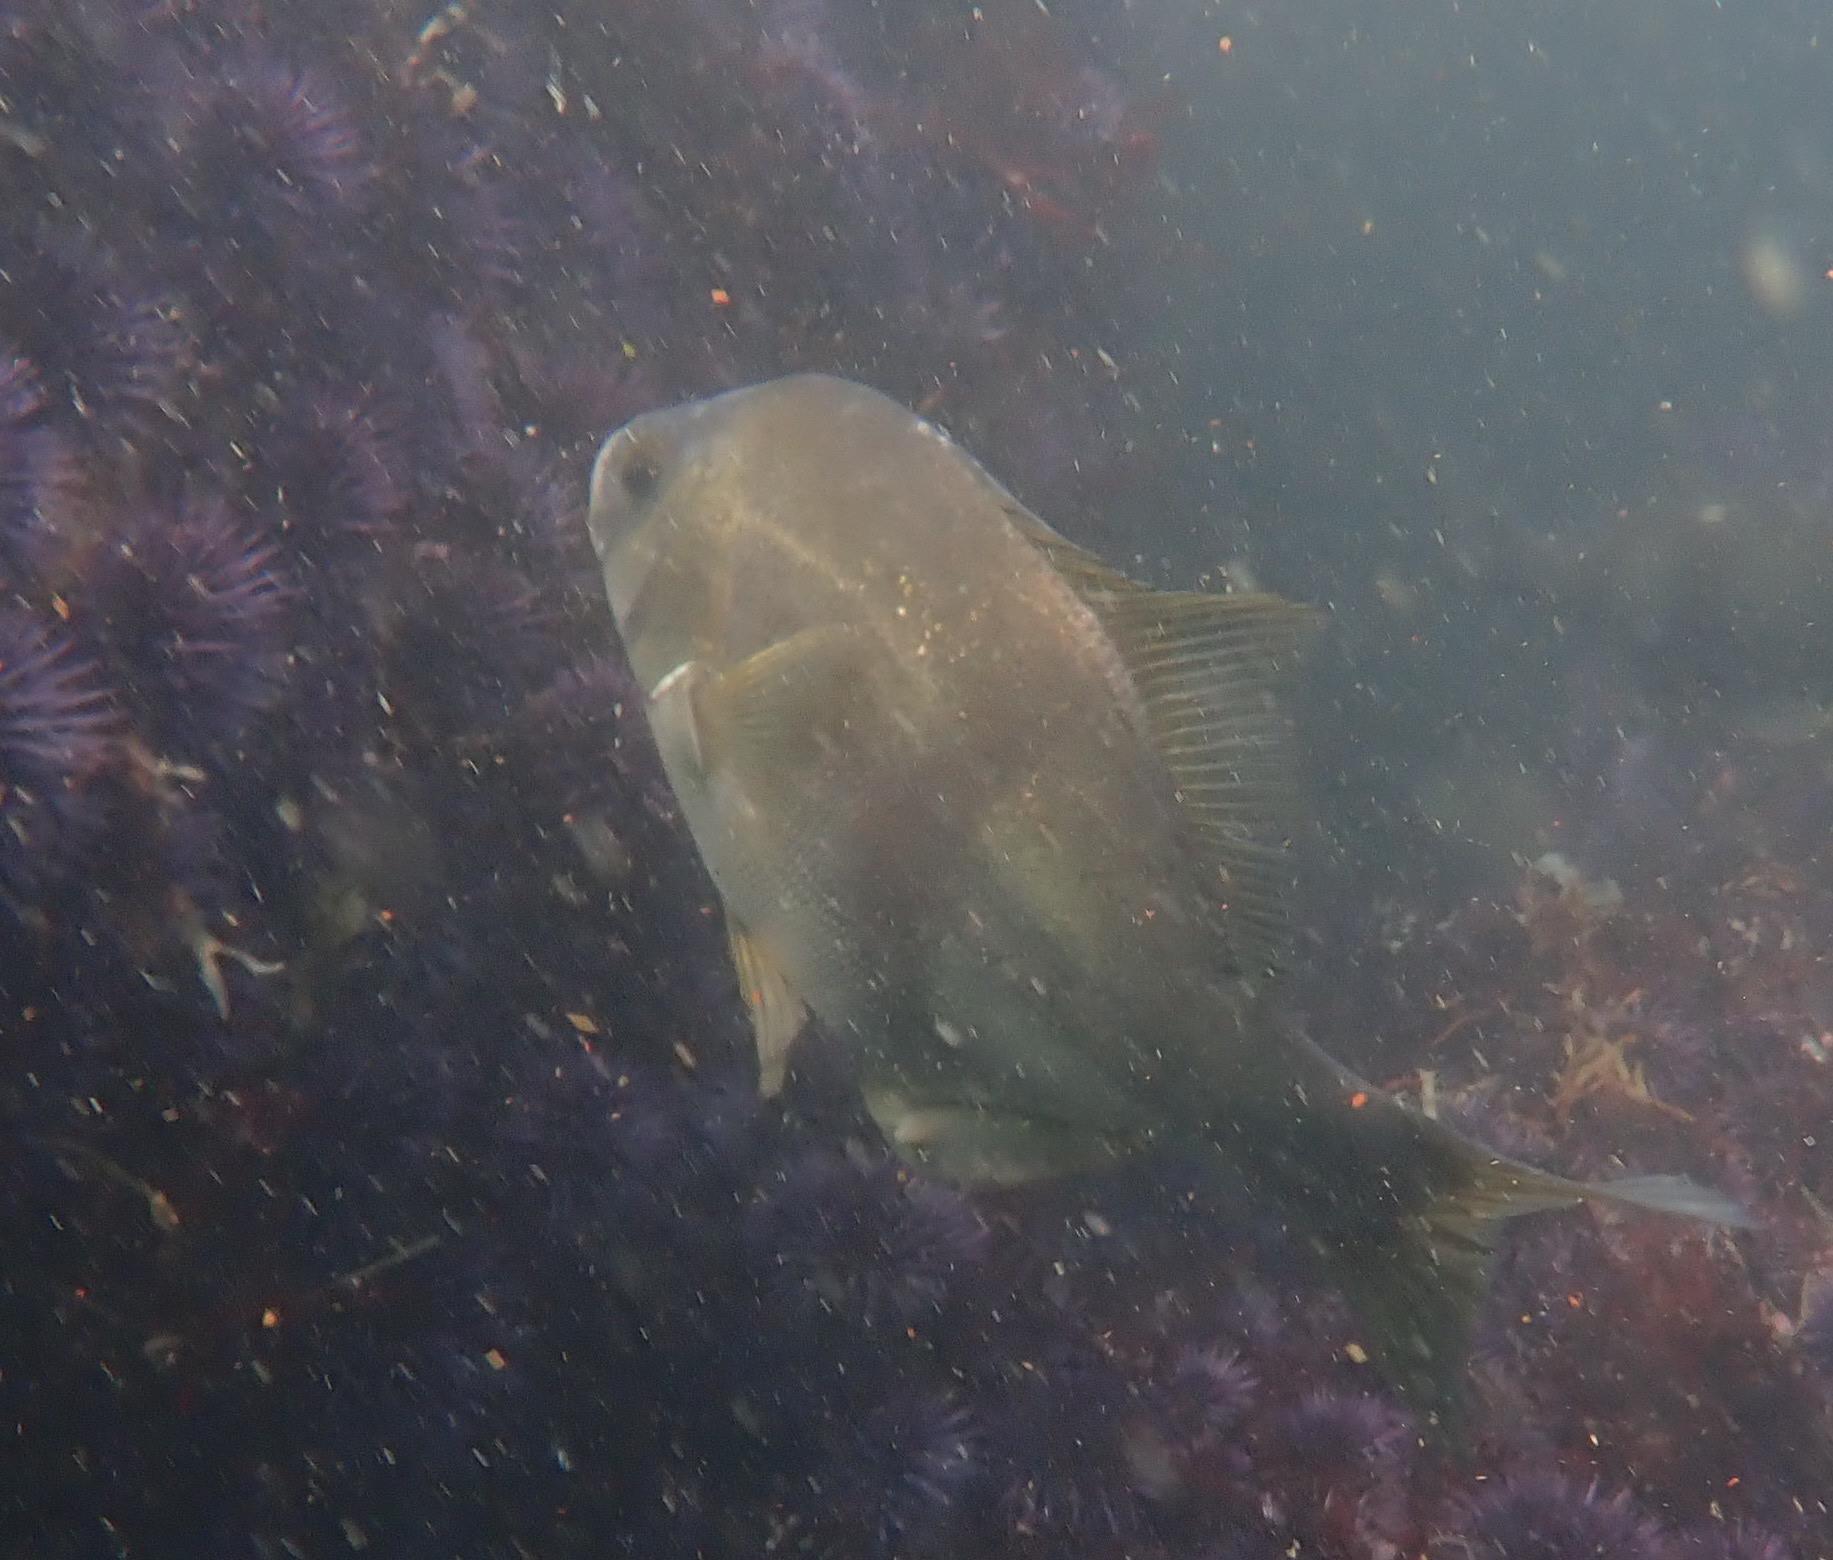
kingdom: Animalia
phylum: Chordata
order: Perciformes
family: Embiotocidae
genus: Rhacochilus
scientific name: Rhacochilus vacca
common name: Pile perch
